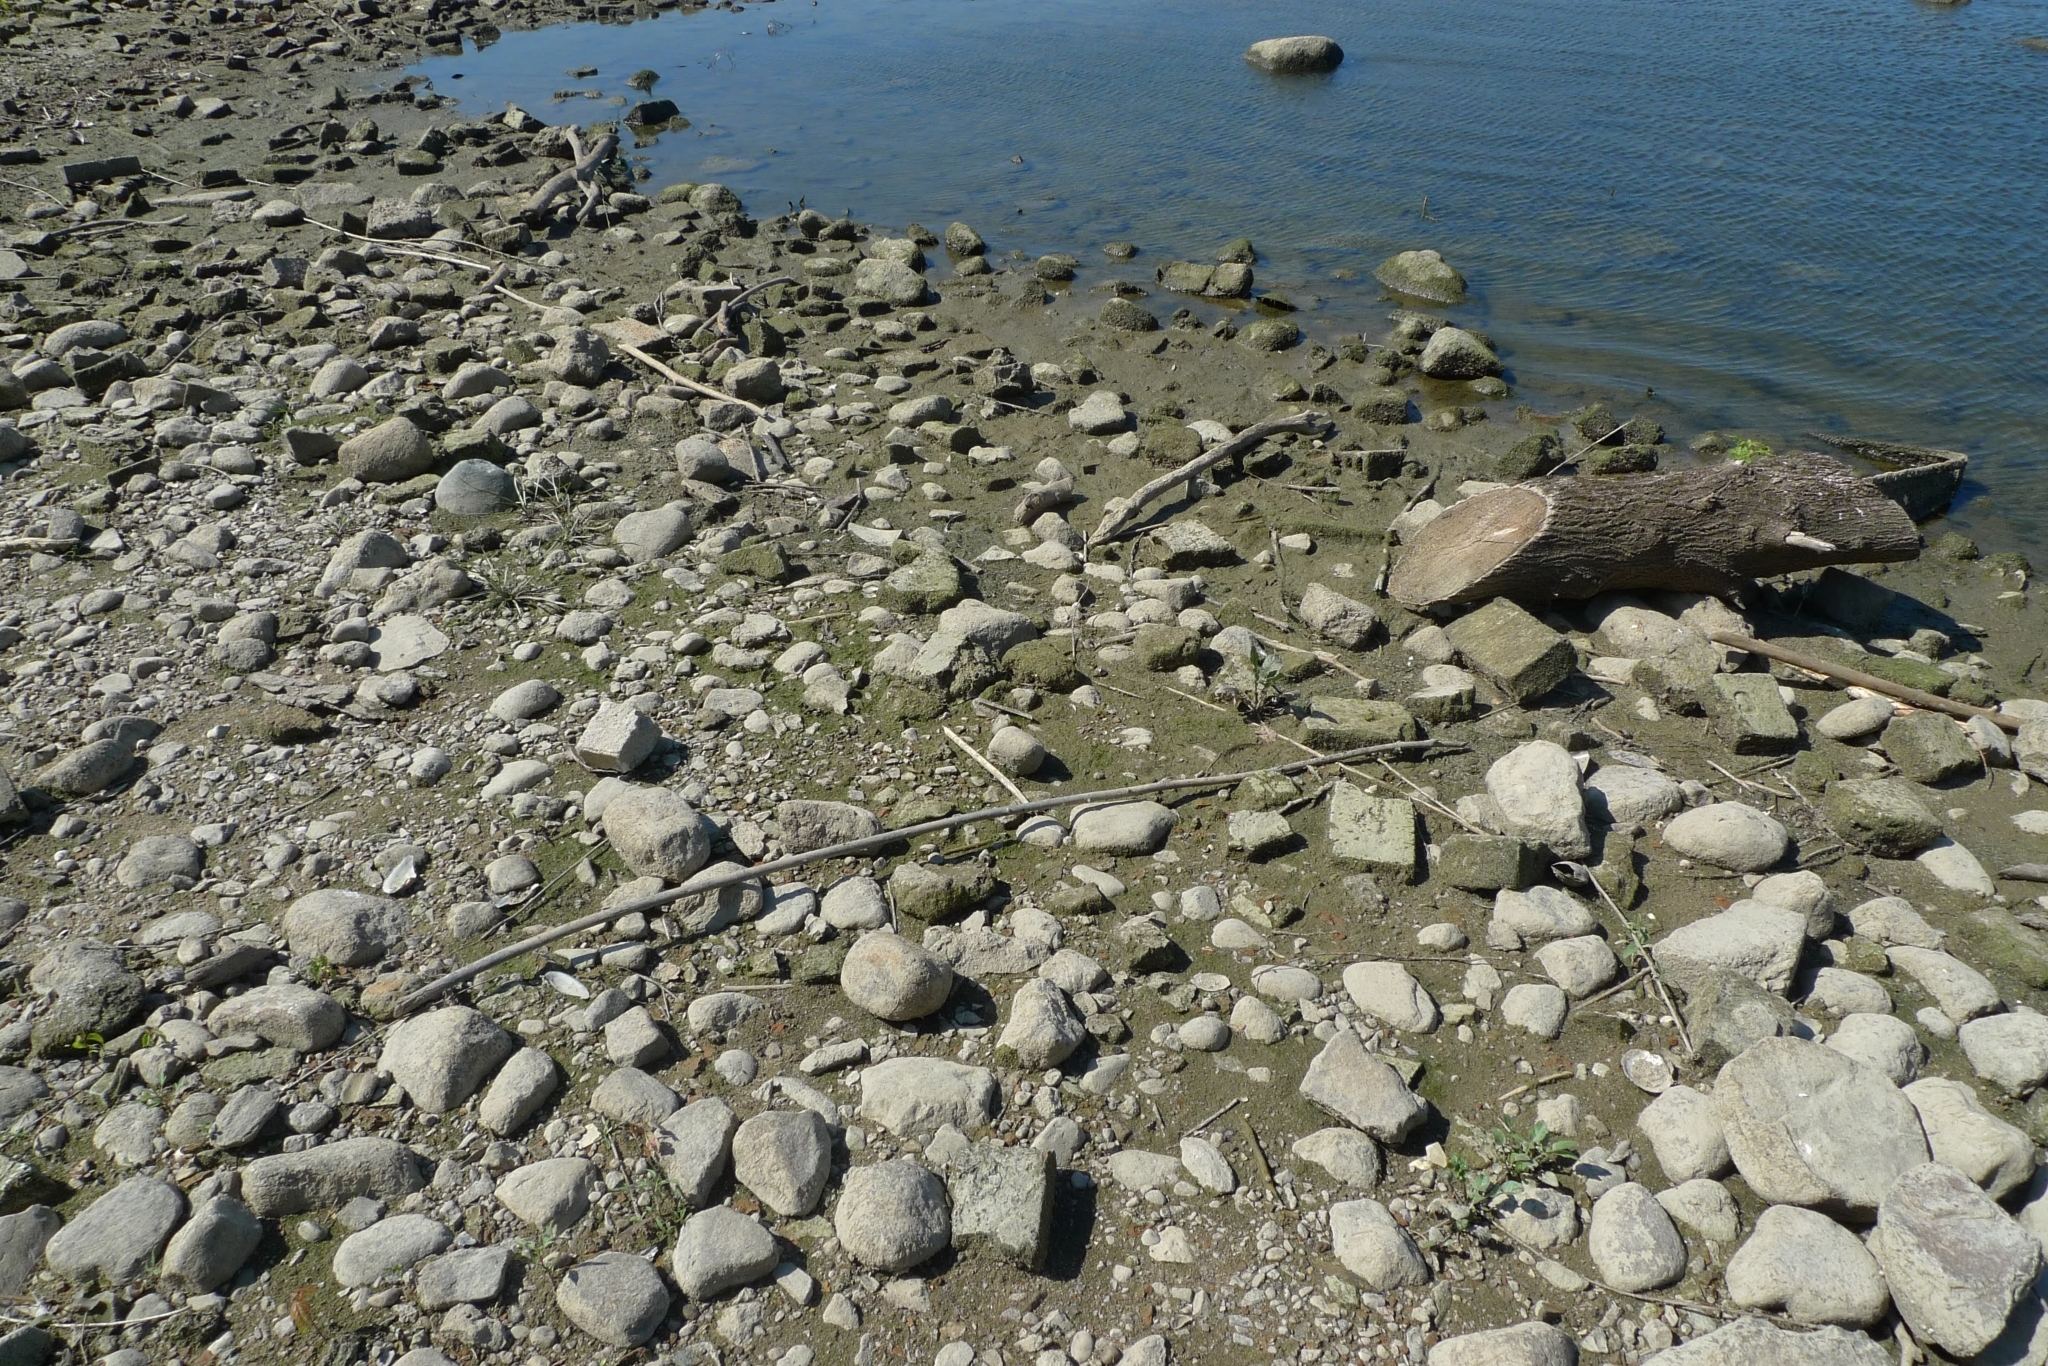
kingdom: Animalia
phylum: Mollusca
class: Bivalvia
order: Venerida
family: Cyrenidae
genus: Corbicula
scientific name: Corbicula fluminea
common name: Asian clam
